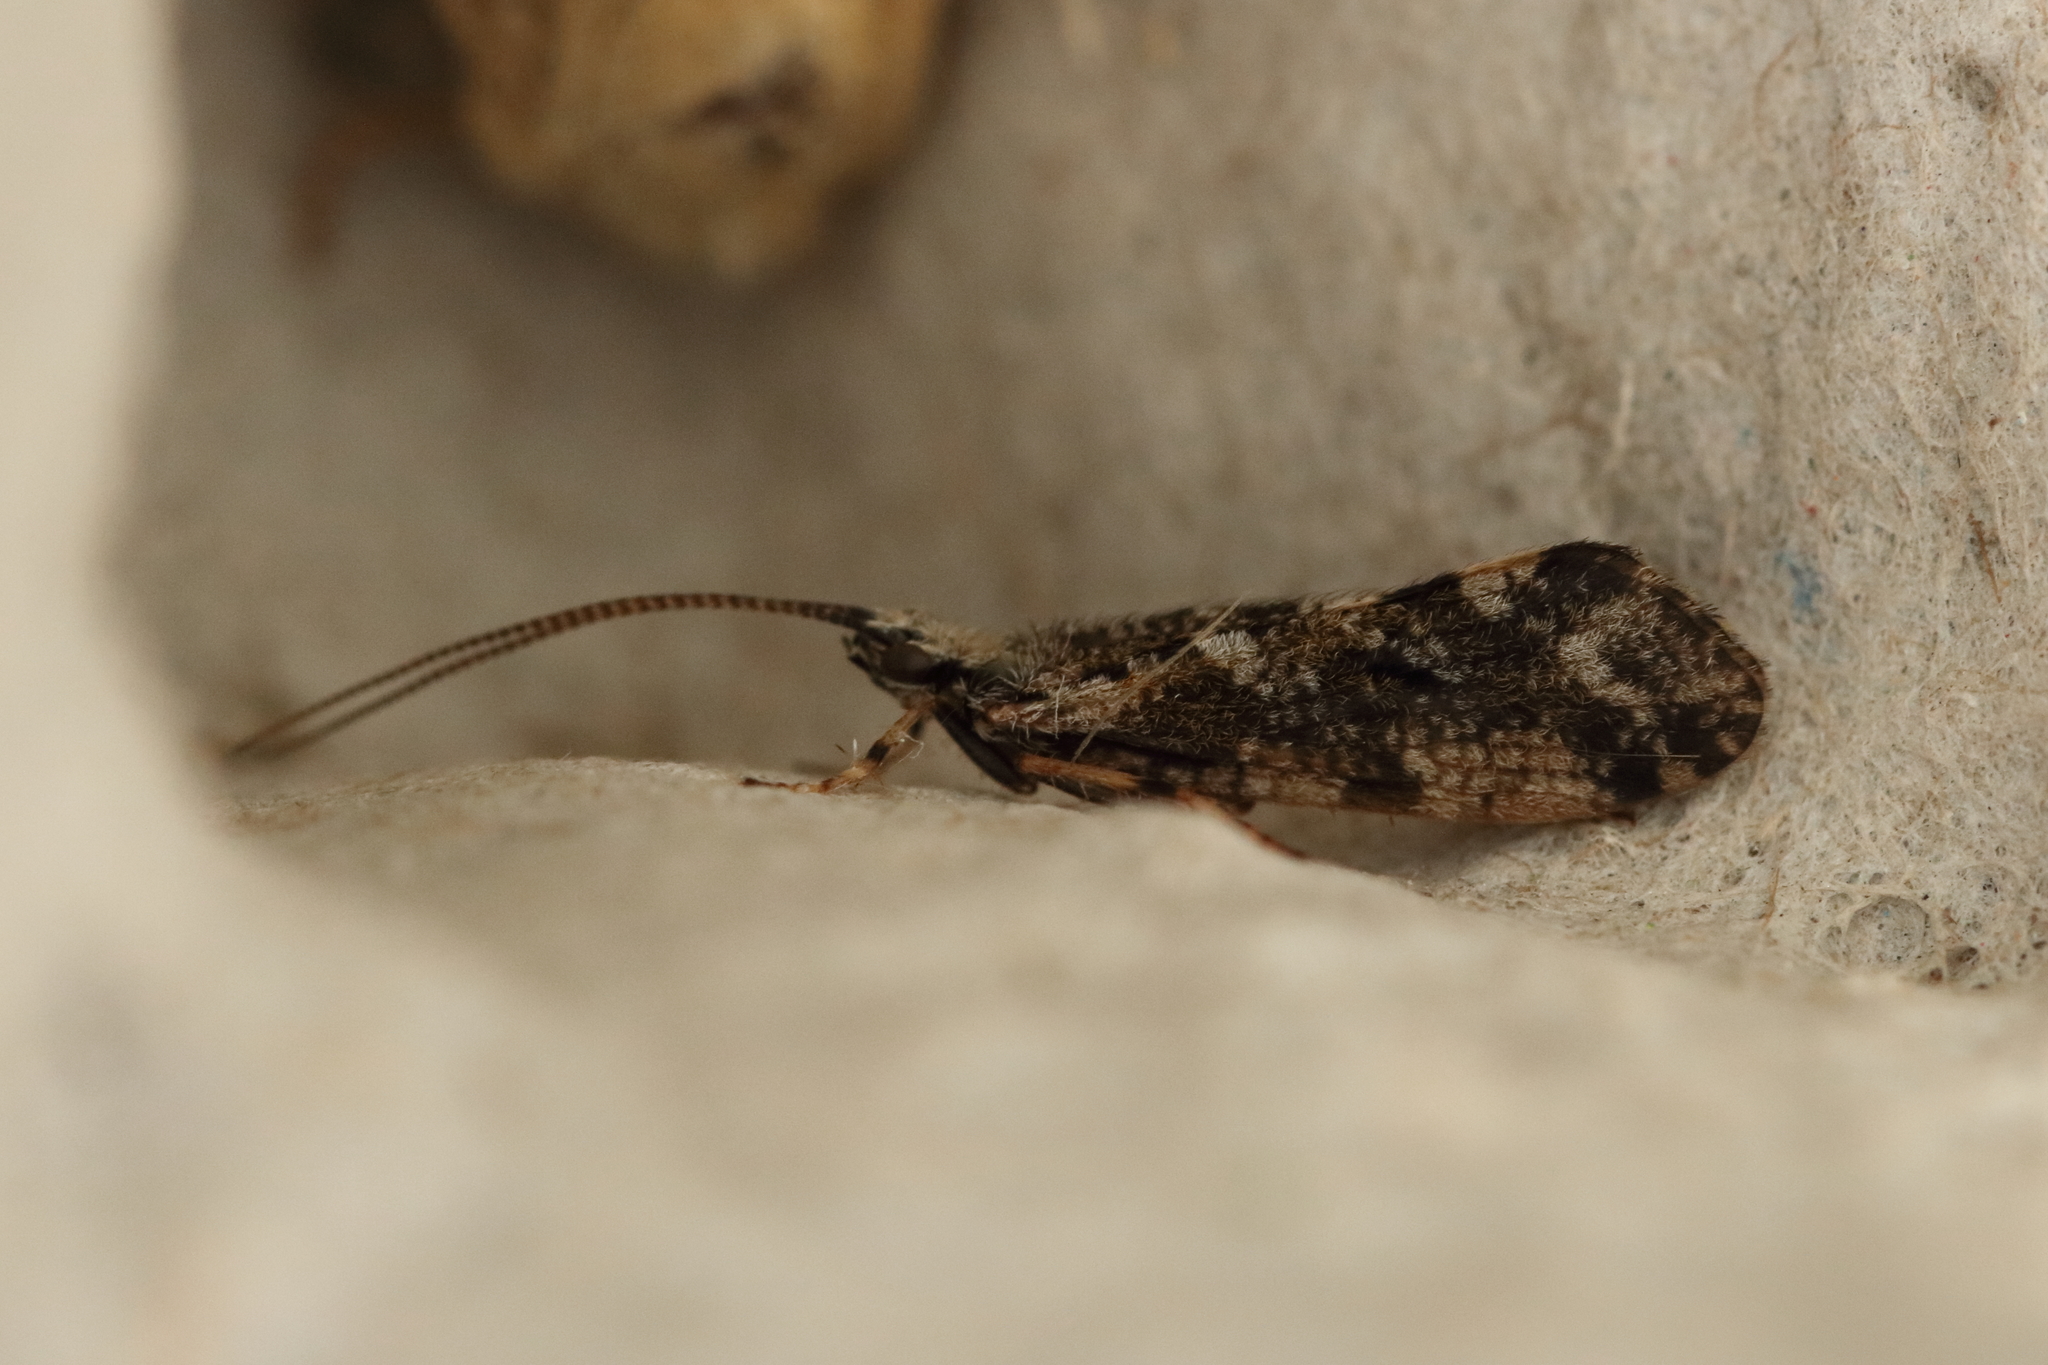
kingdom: Animalia
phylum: Arthropoda
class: Insecta
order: Trichoptera
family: Phryganeidae
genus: Trichostegia
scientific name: Trichostegia minor
